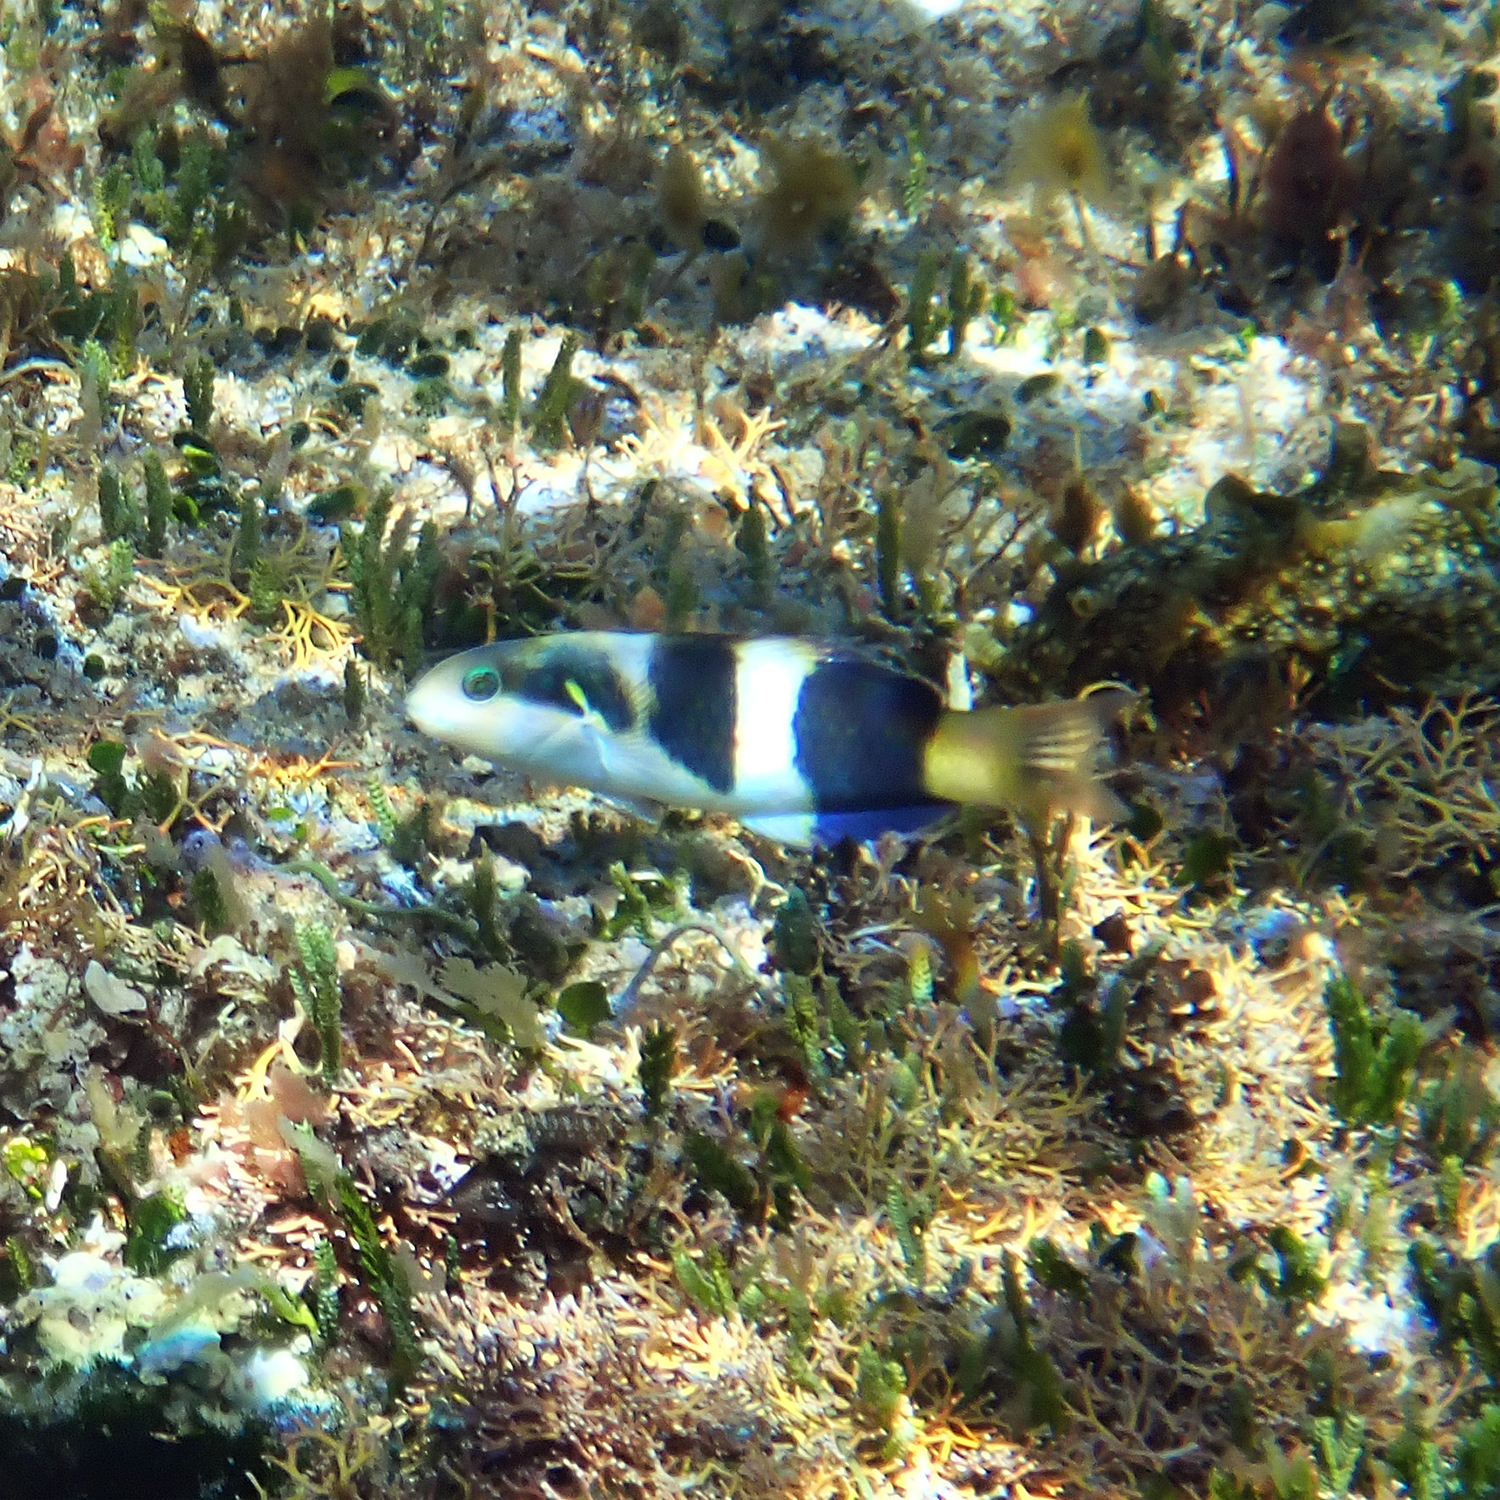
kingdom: Animalia
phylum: Chordata
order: Perciformes
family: Labridae
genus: Thalassoma
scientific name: Thalassoma nigrofasciatum
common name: Black-barred wrasse
